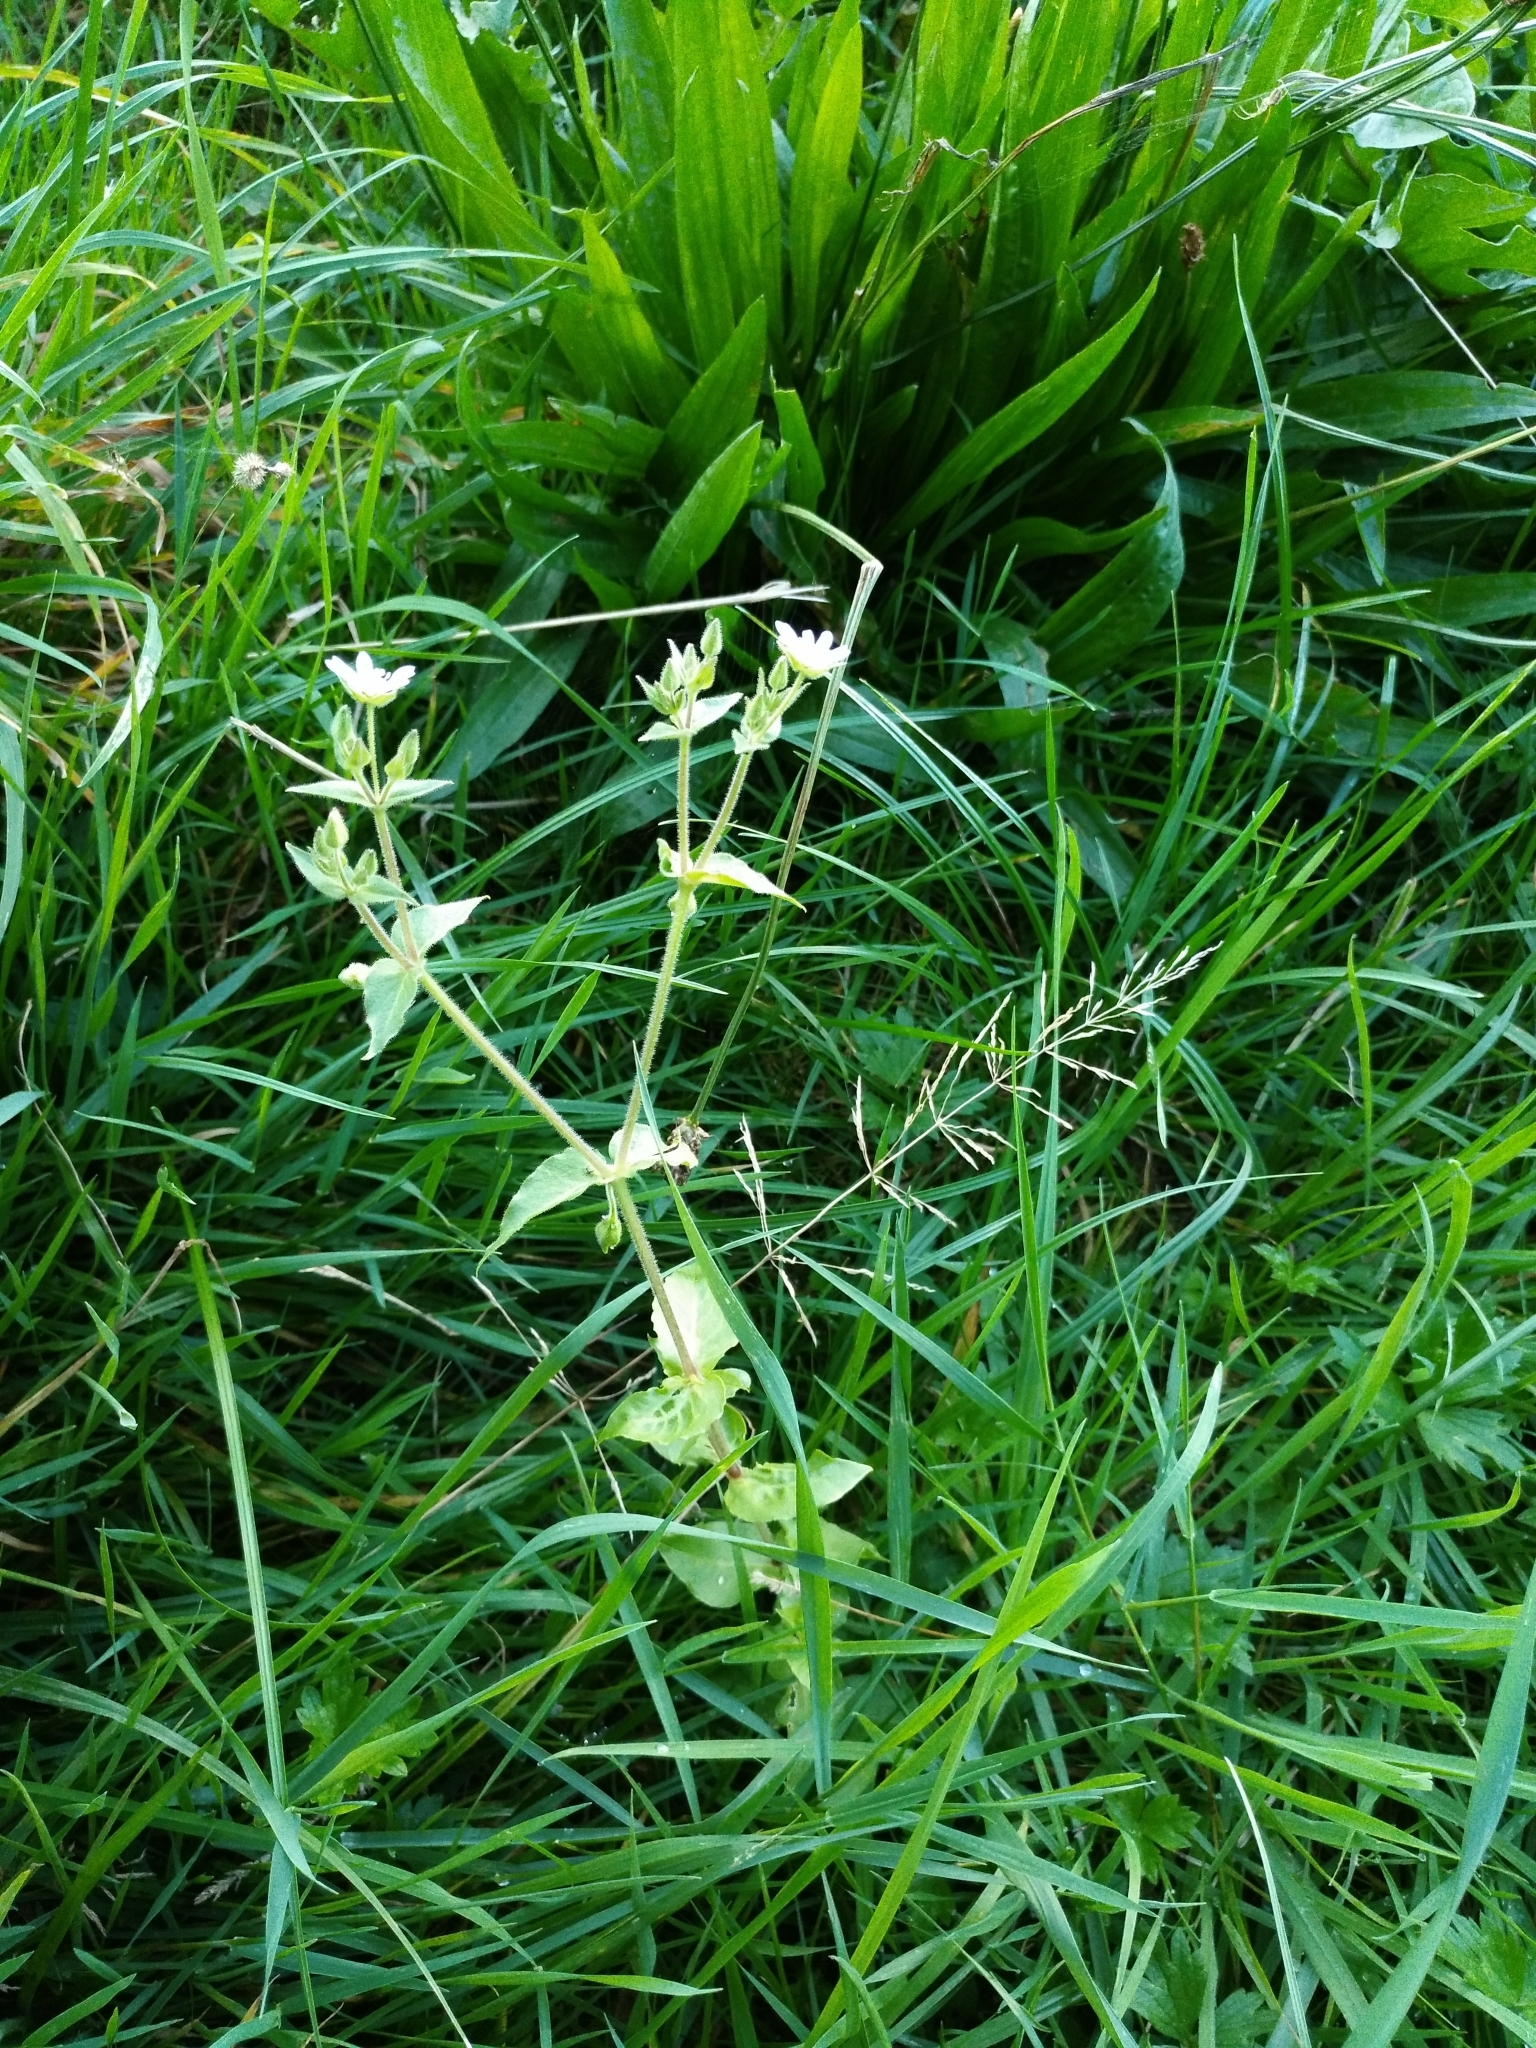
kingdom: Plantae
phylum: Tracheophyta
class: Magnoliopsida
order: Caryophyllales
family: Caryophyllaceae
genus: Stellaria
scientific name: Stellaria aquatica
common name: Water chickweed
